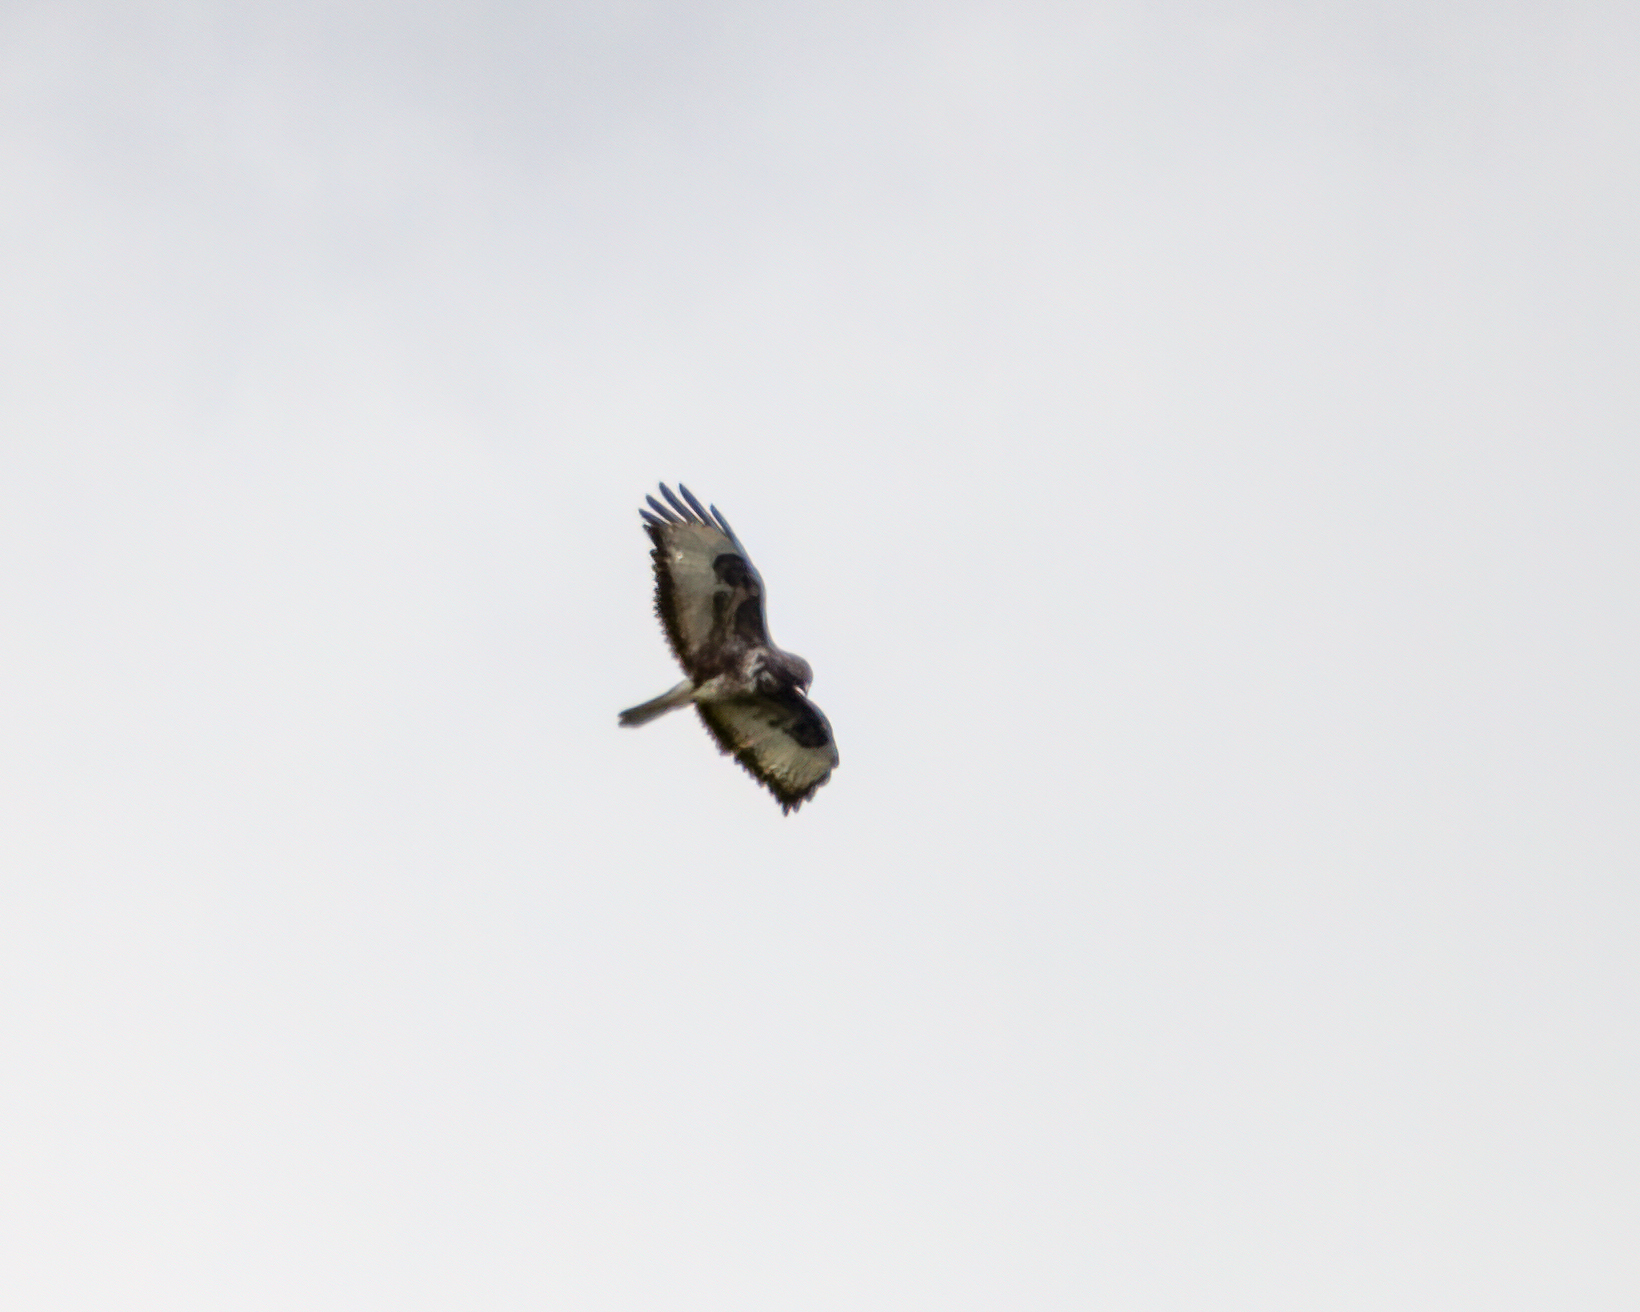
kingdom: Animalia
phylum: Chordata
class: Aves
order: Accipitriformes
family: Accipitridae
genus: Buteo
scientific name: Buteo buteo
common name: Common buzzard
